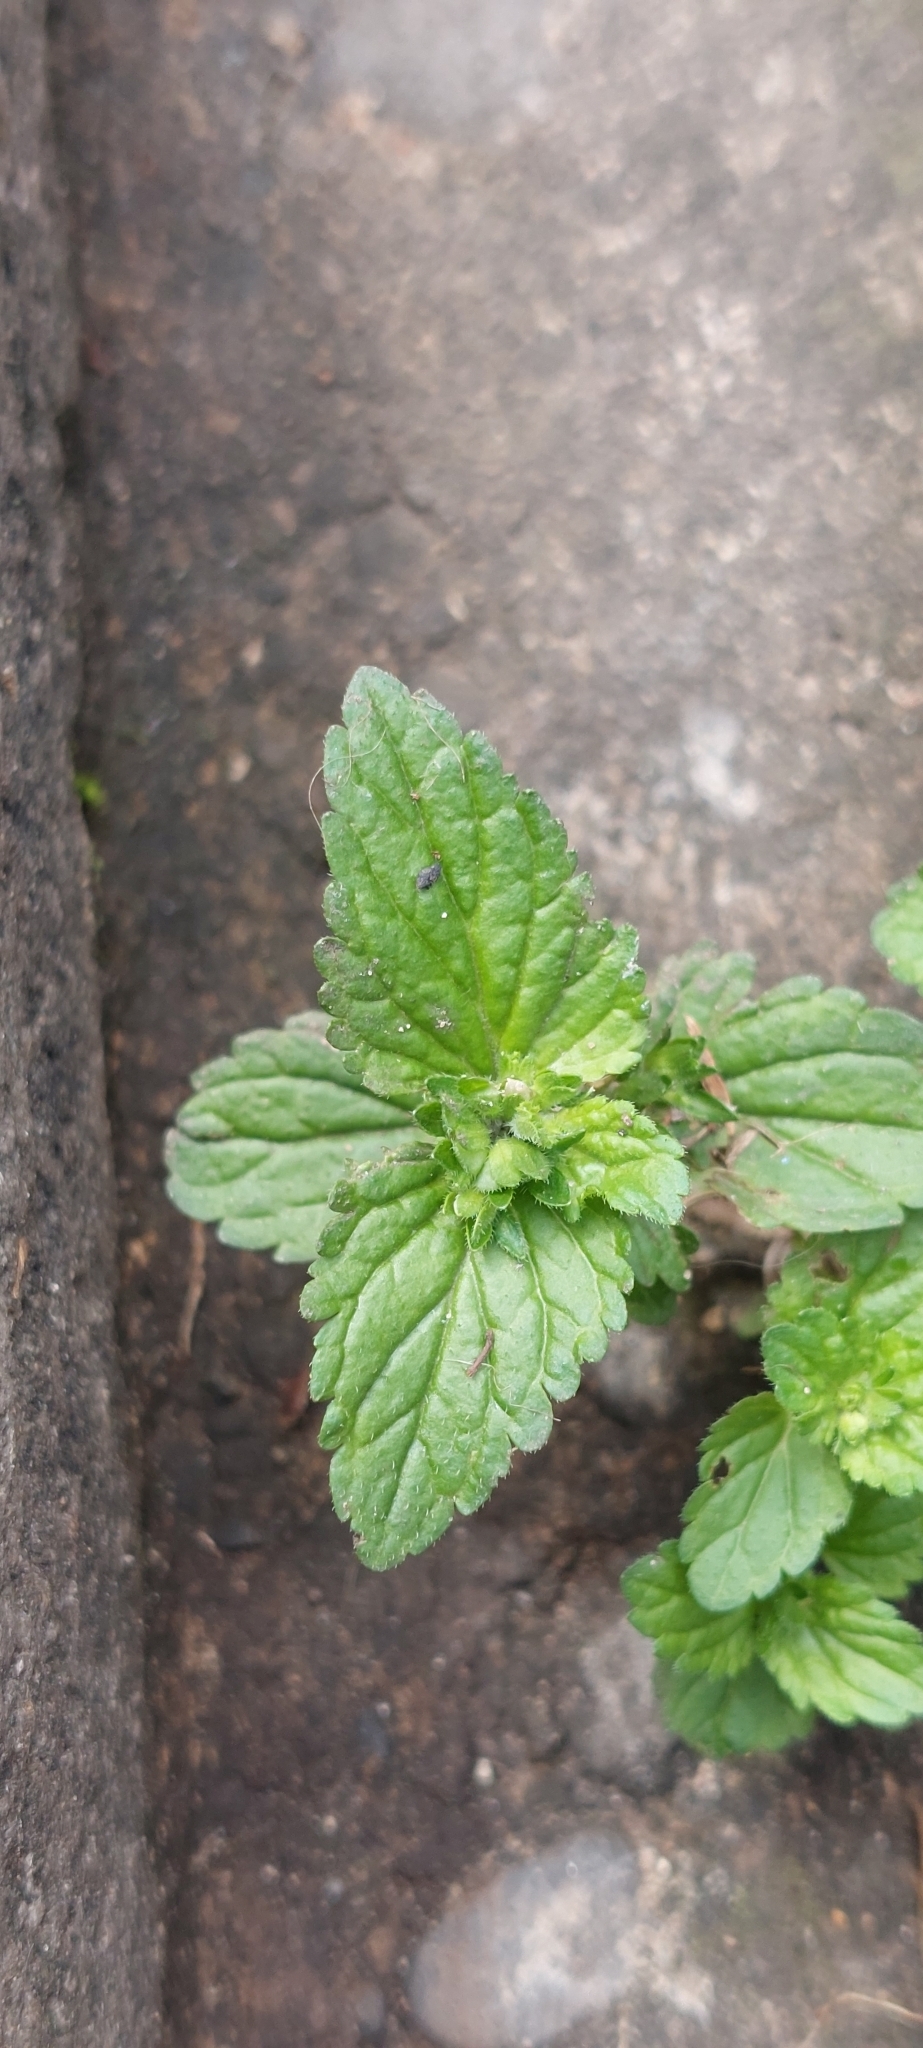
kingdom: Plantae
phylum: Tracheophyta
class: Magnoliopsida
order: Lamiales
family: Plantaginaceae
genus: Veronica
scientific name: Veronica javanica
